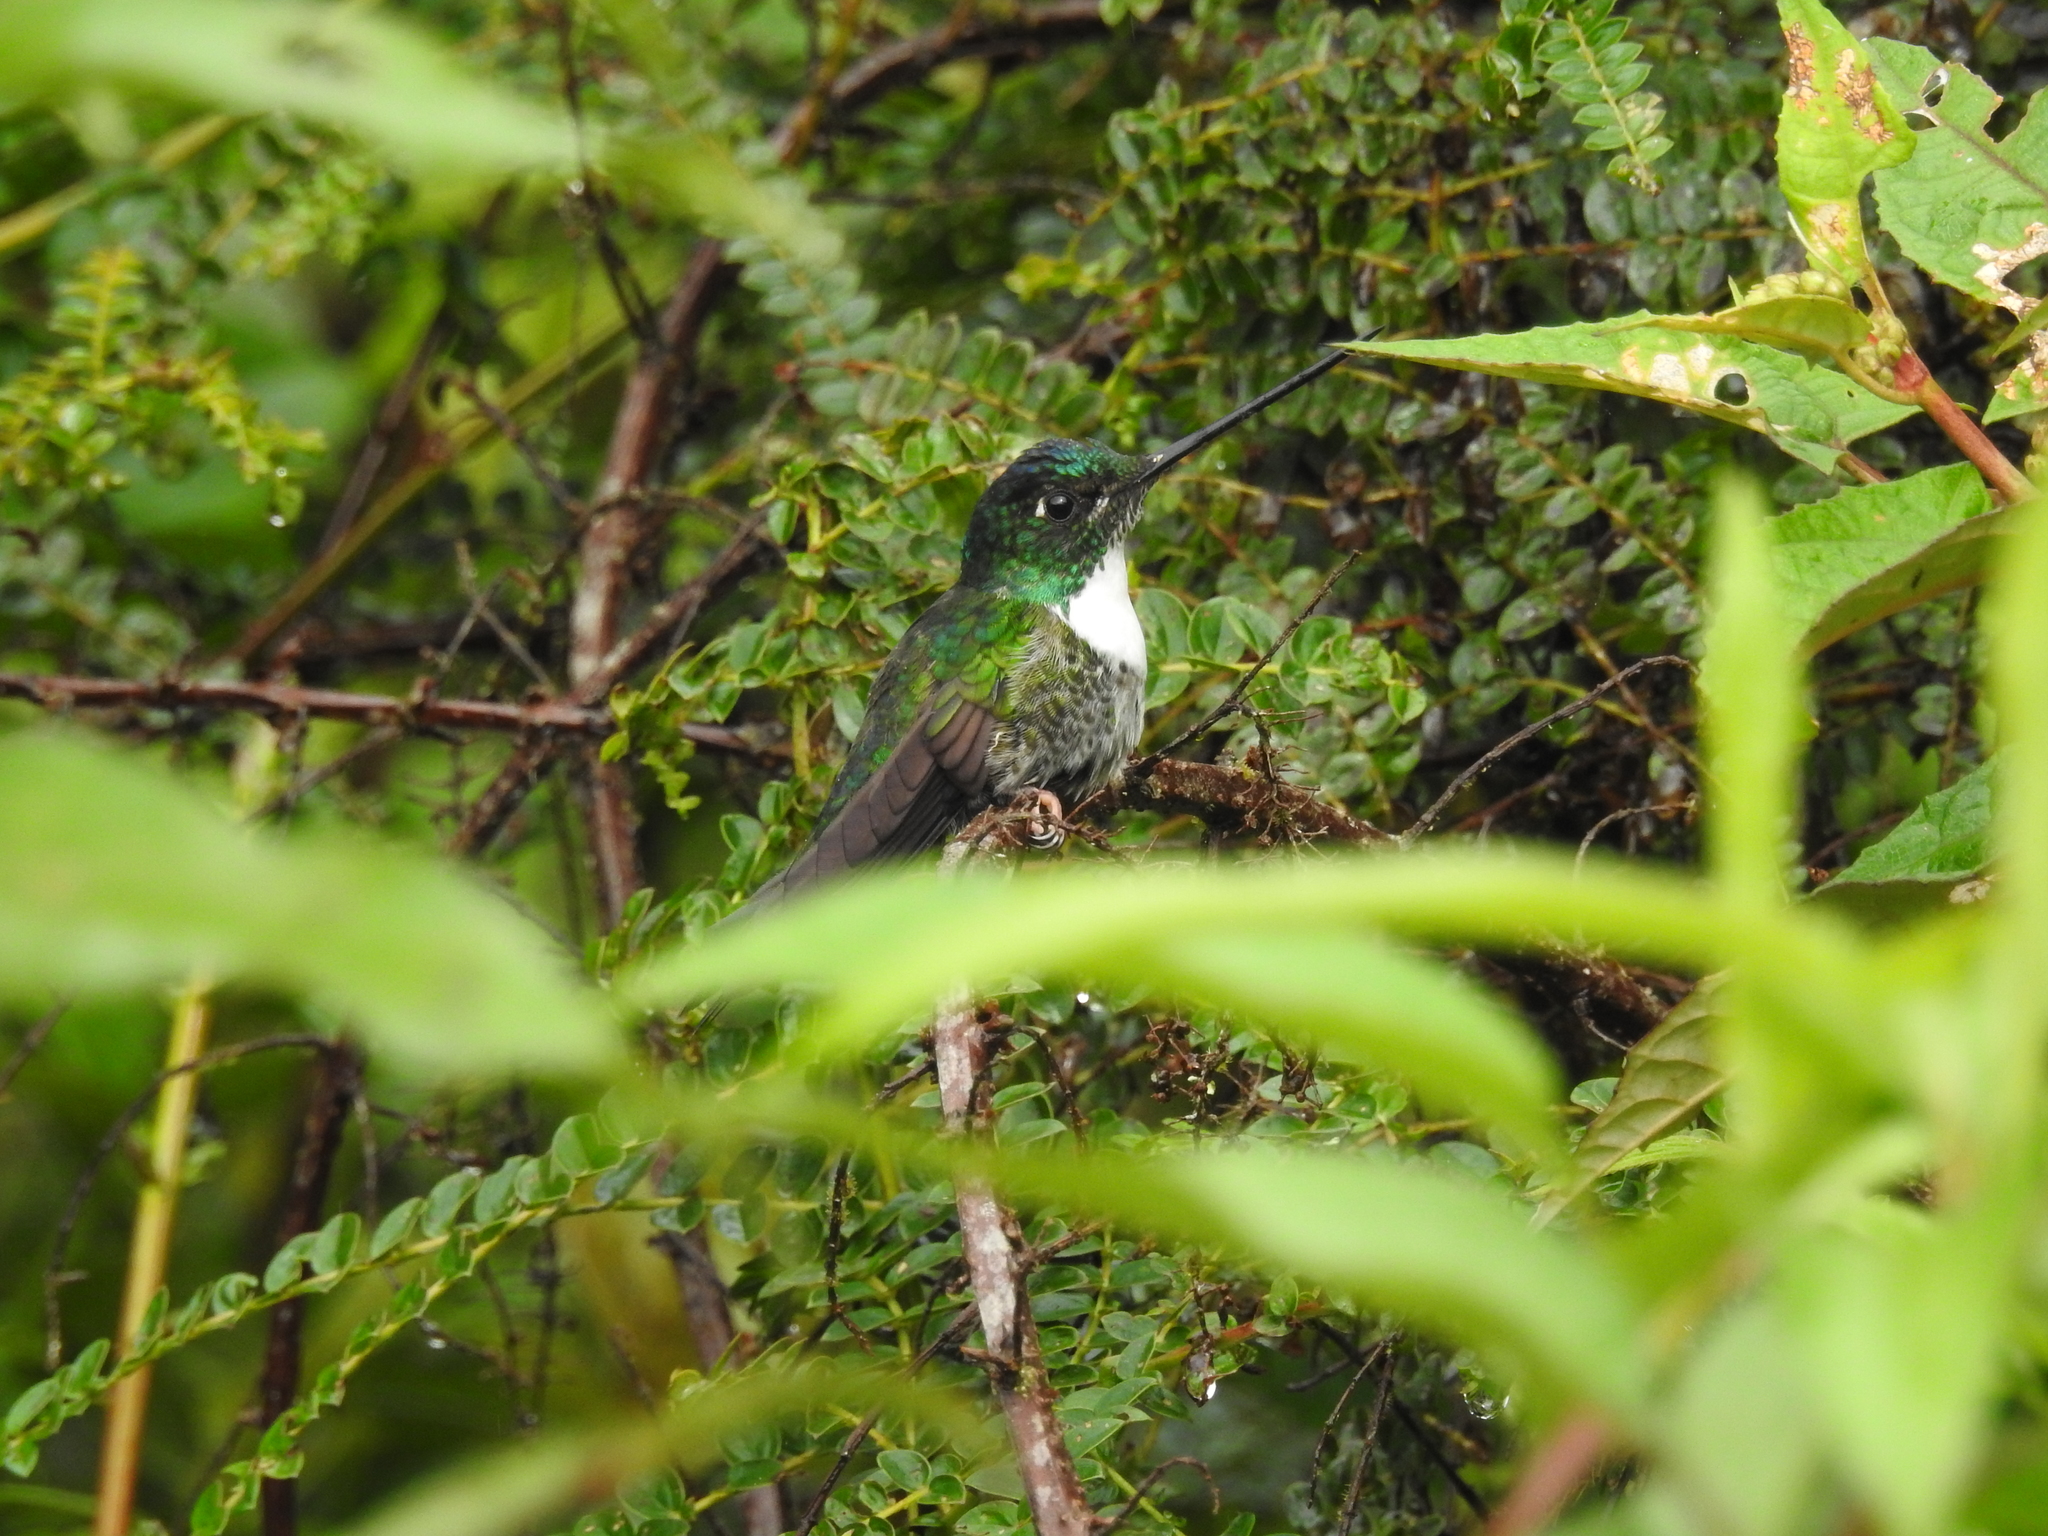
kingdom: Animalia
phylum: Chordata
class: Aves
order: Apodiformes
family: Trochilidae
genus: Coeligena
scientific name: Coeligena torquata
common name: Collared inca
